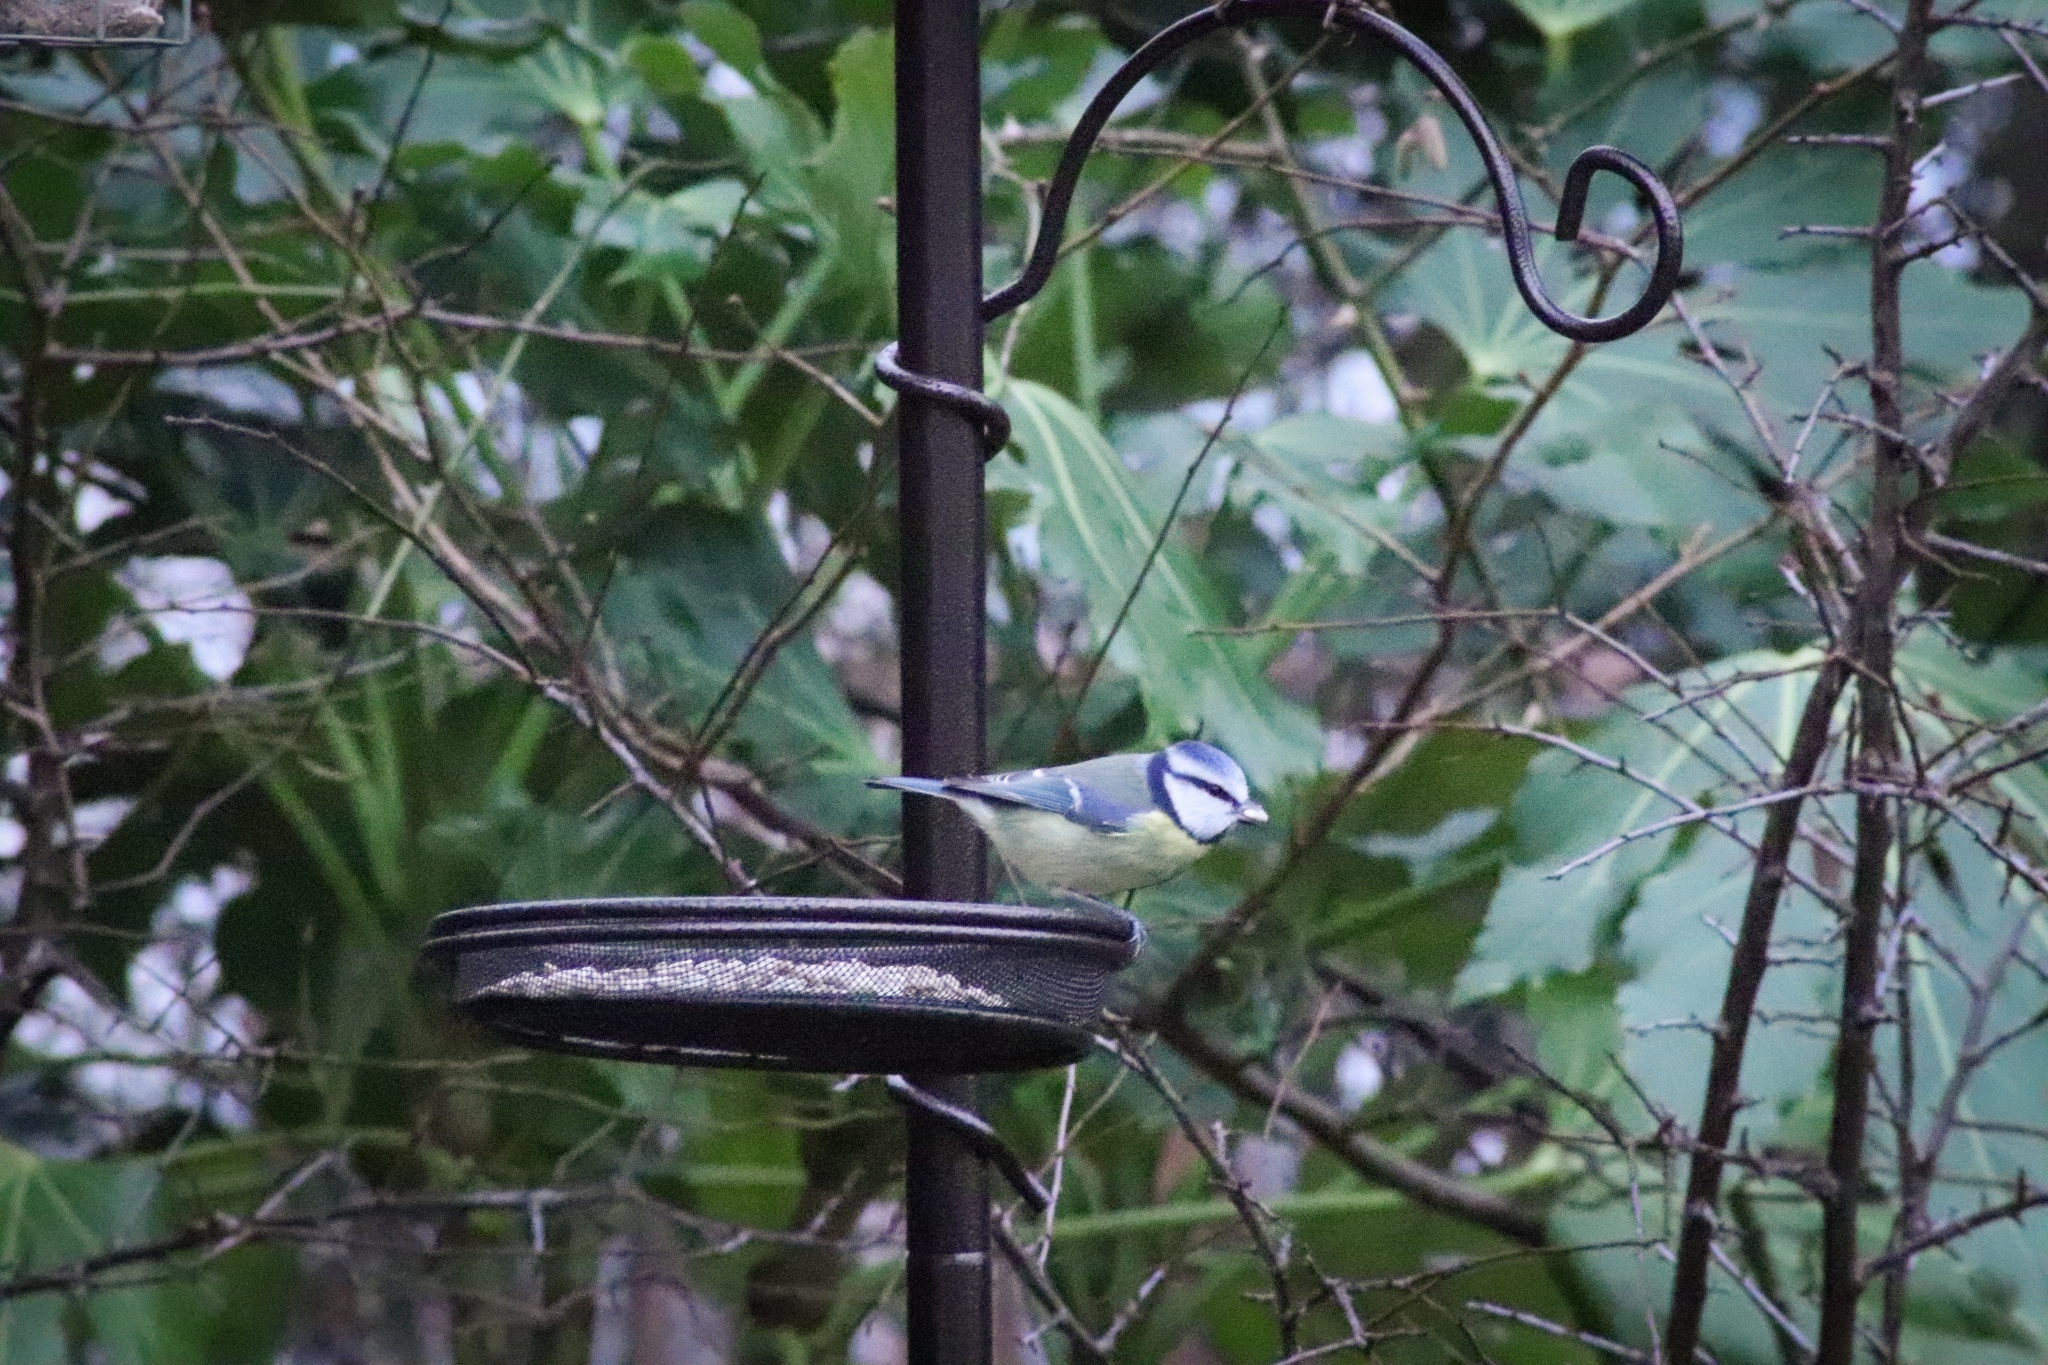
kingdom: Animalia
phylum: Chordata
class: Aves
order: Passeriformes
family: Paridae
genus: Cyanistes
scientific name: Cyanistes caeruleus
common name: Eurasian blue tit
